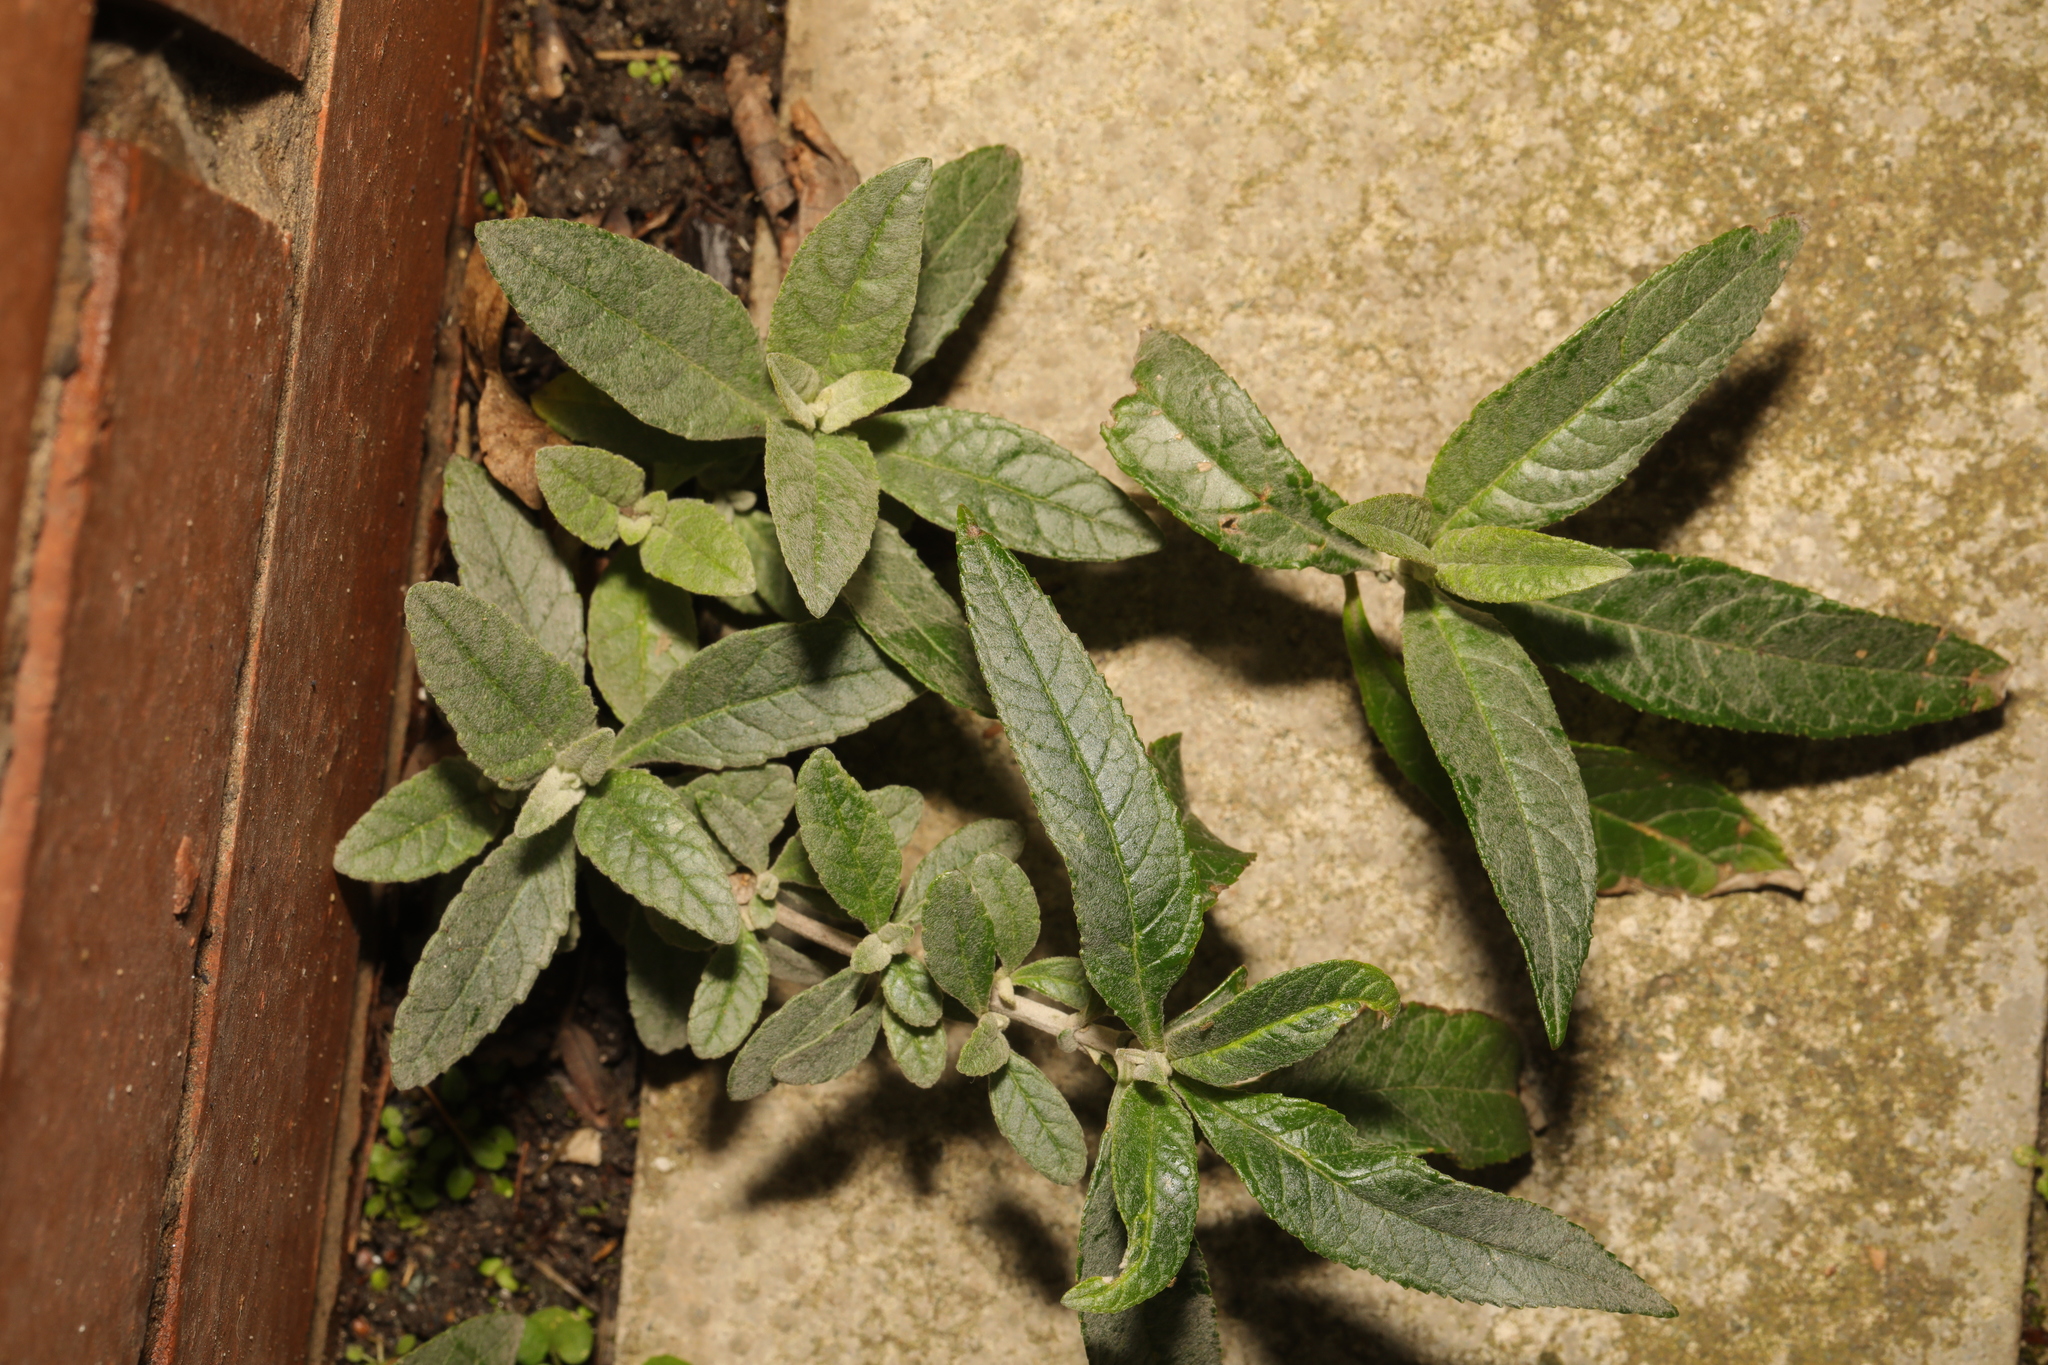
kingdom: Plantae
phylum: Tracheophyta
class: Magnoliopsida
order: Lamiales
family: Scrophulariaceae
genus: Buddleja
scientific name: Buddleja davidii
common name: Butterfly-bush
